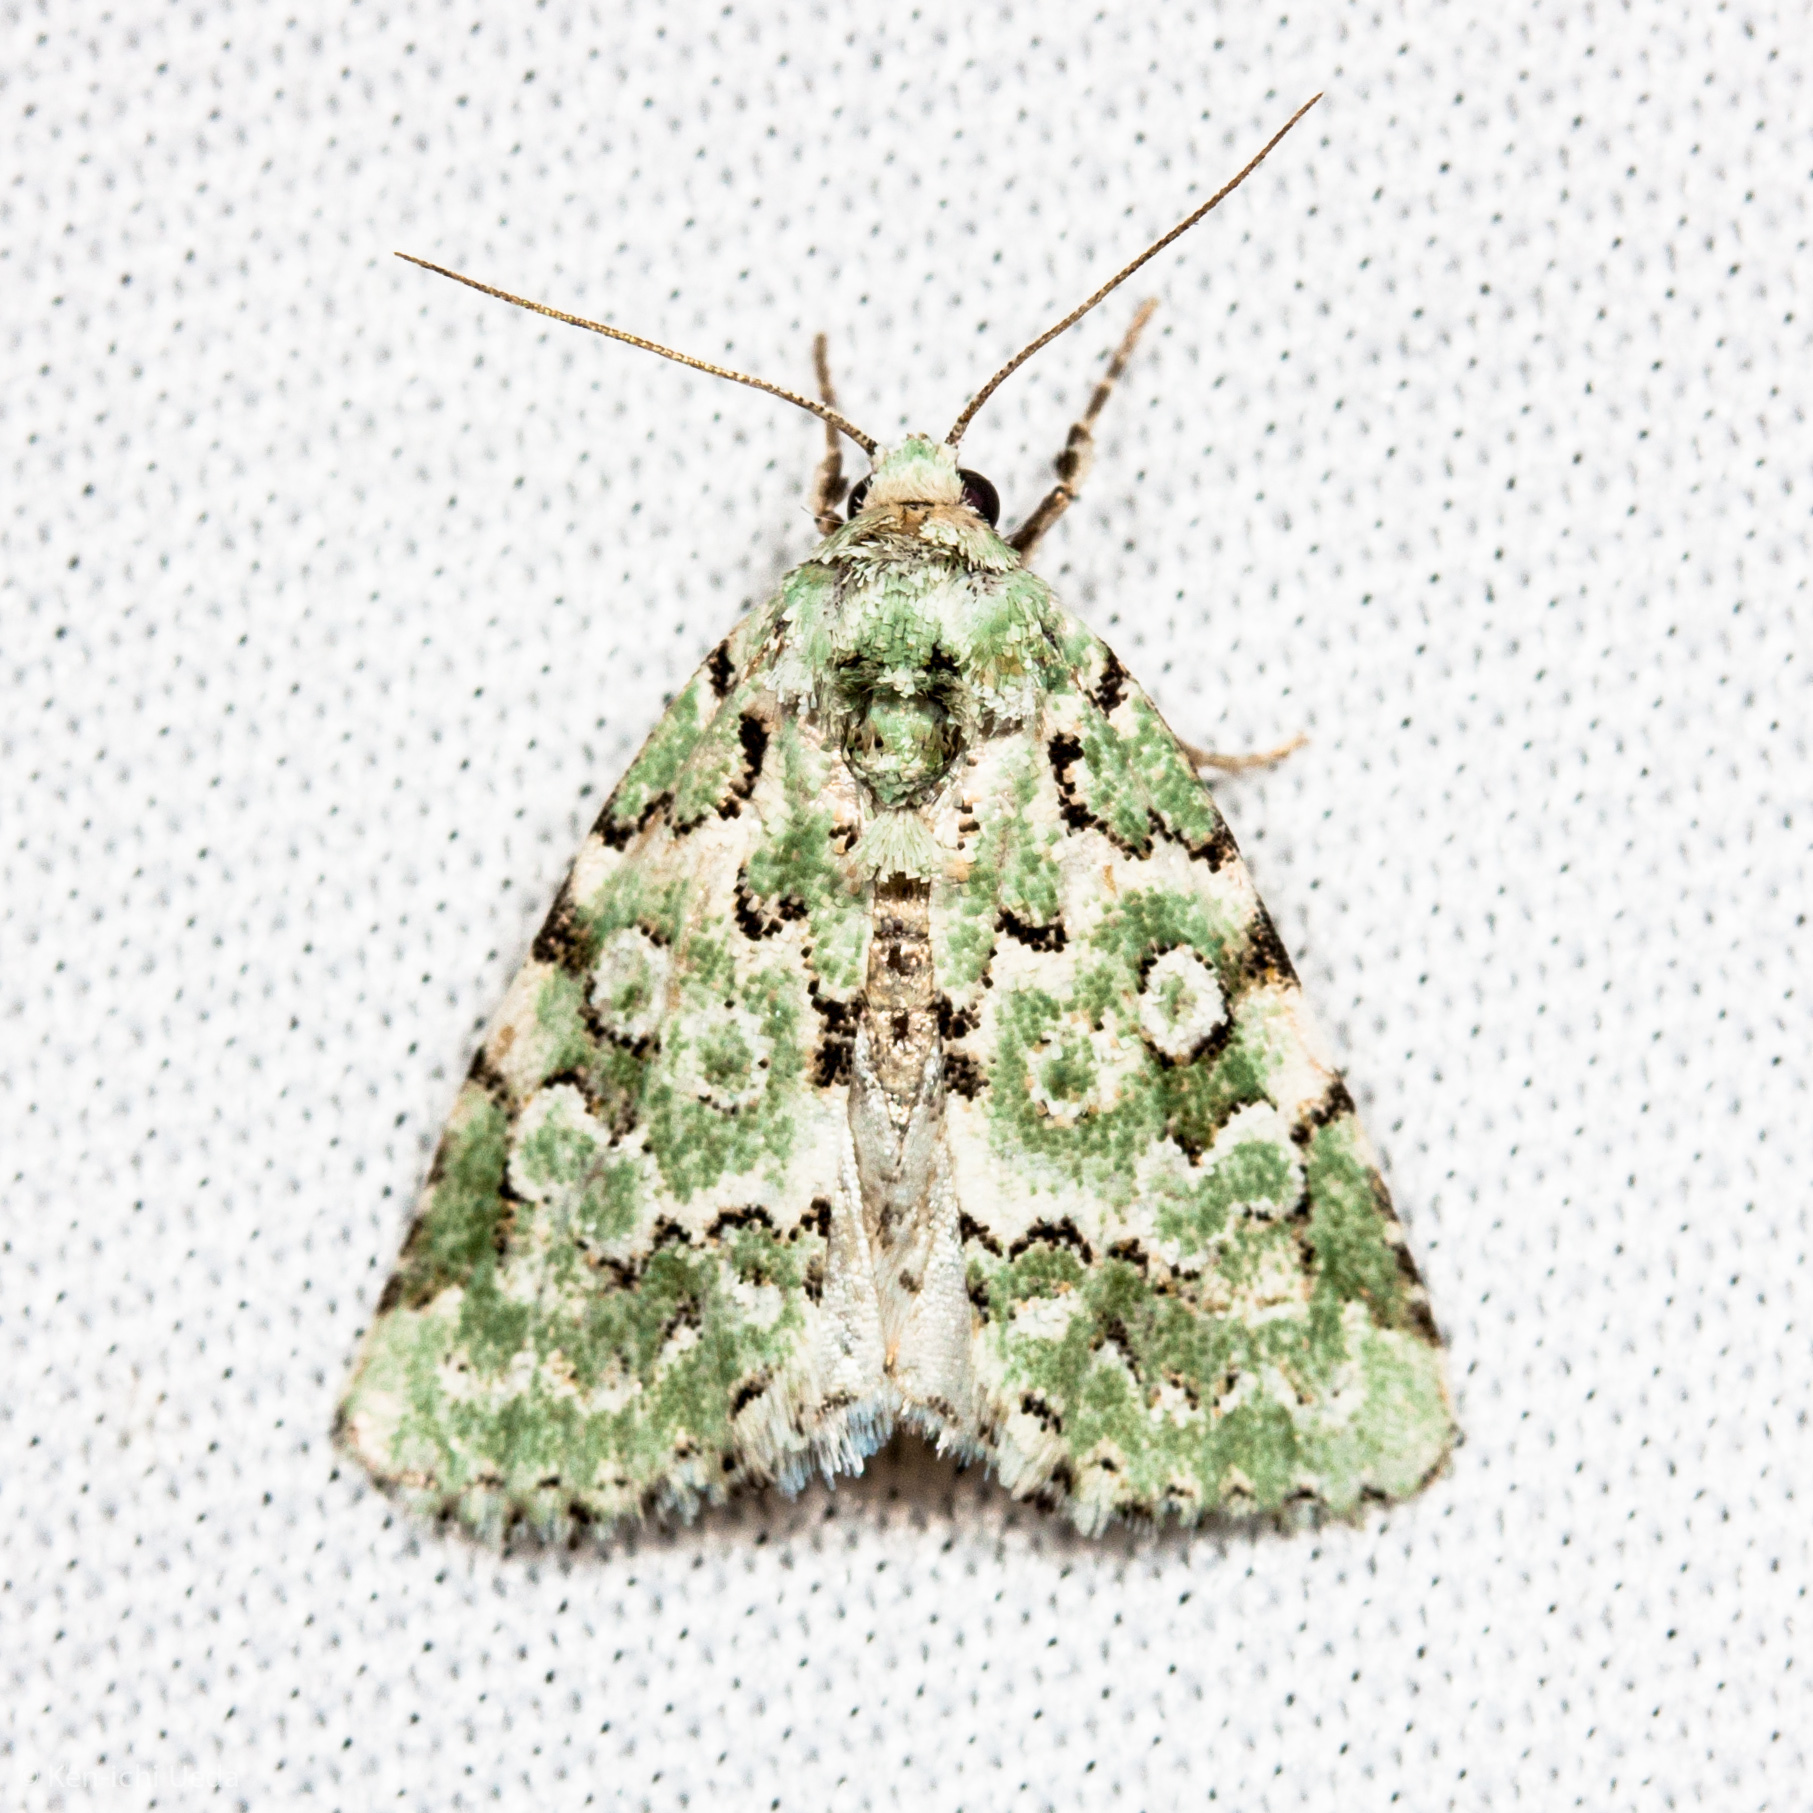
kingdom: Animalia
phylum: Arthropoda
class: Insecta
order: Lepidoptera
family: Noctuidae
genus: Bryolymnia
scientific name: Bryolymnia viridata
